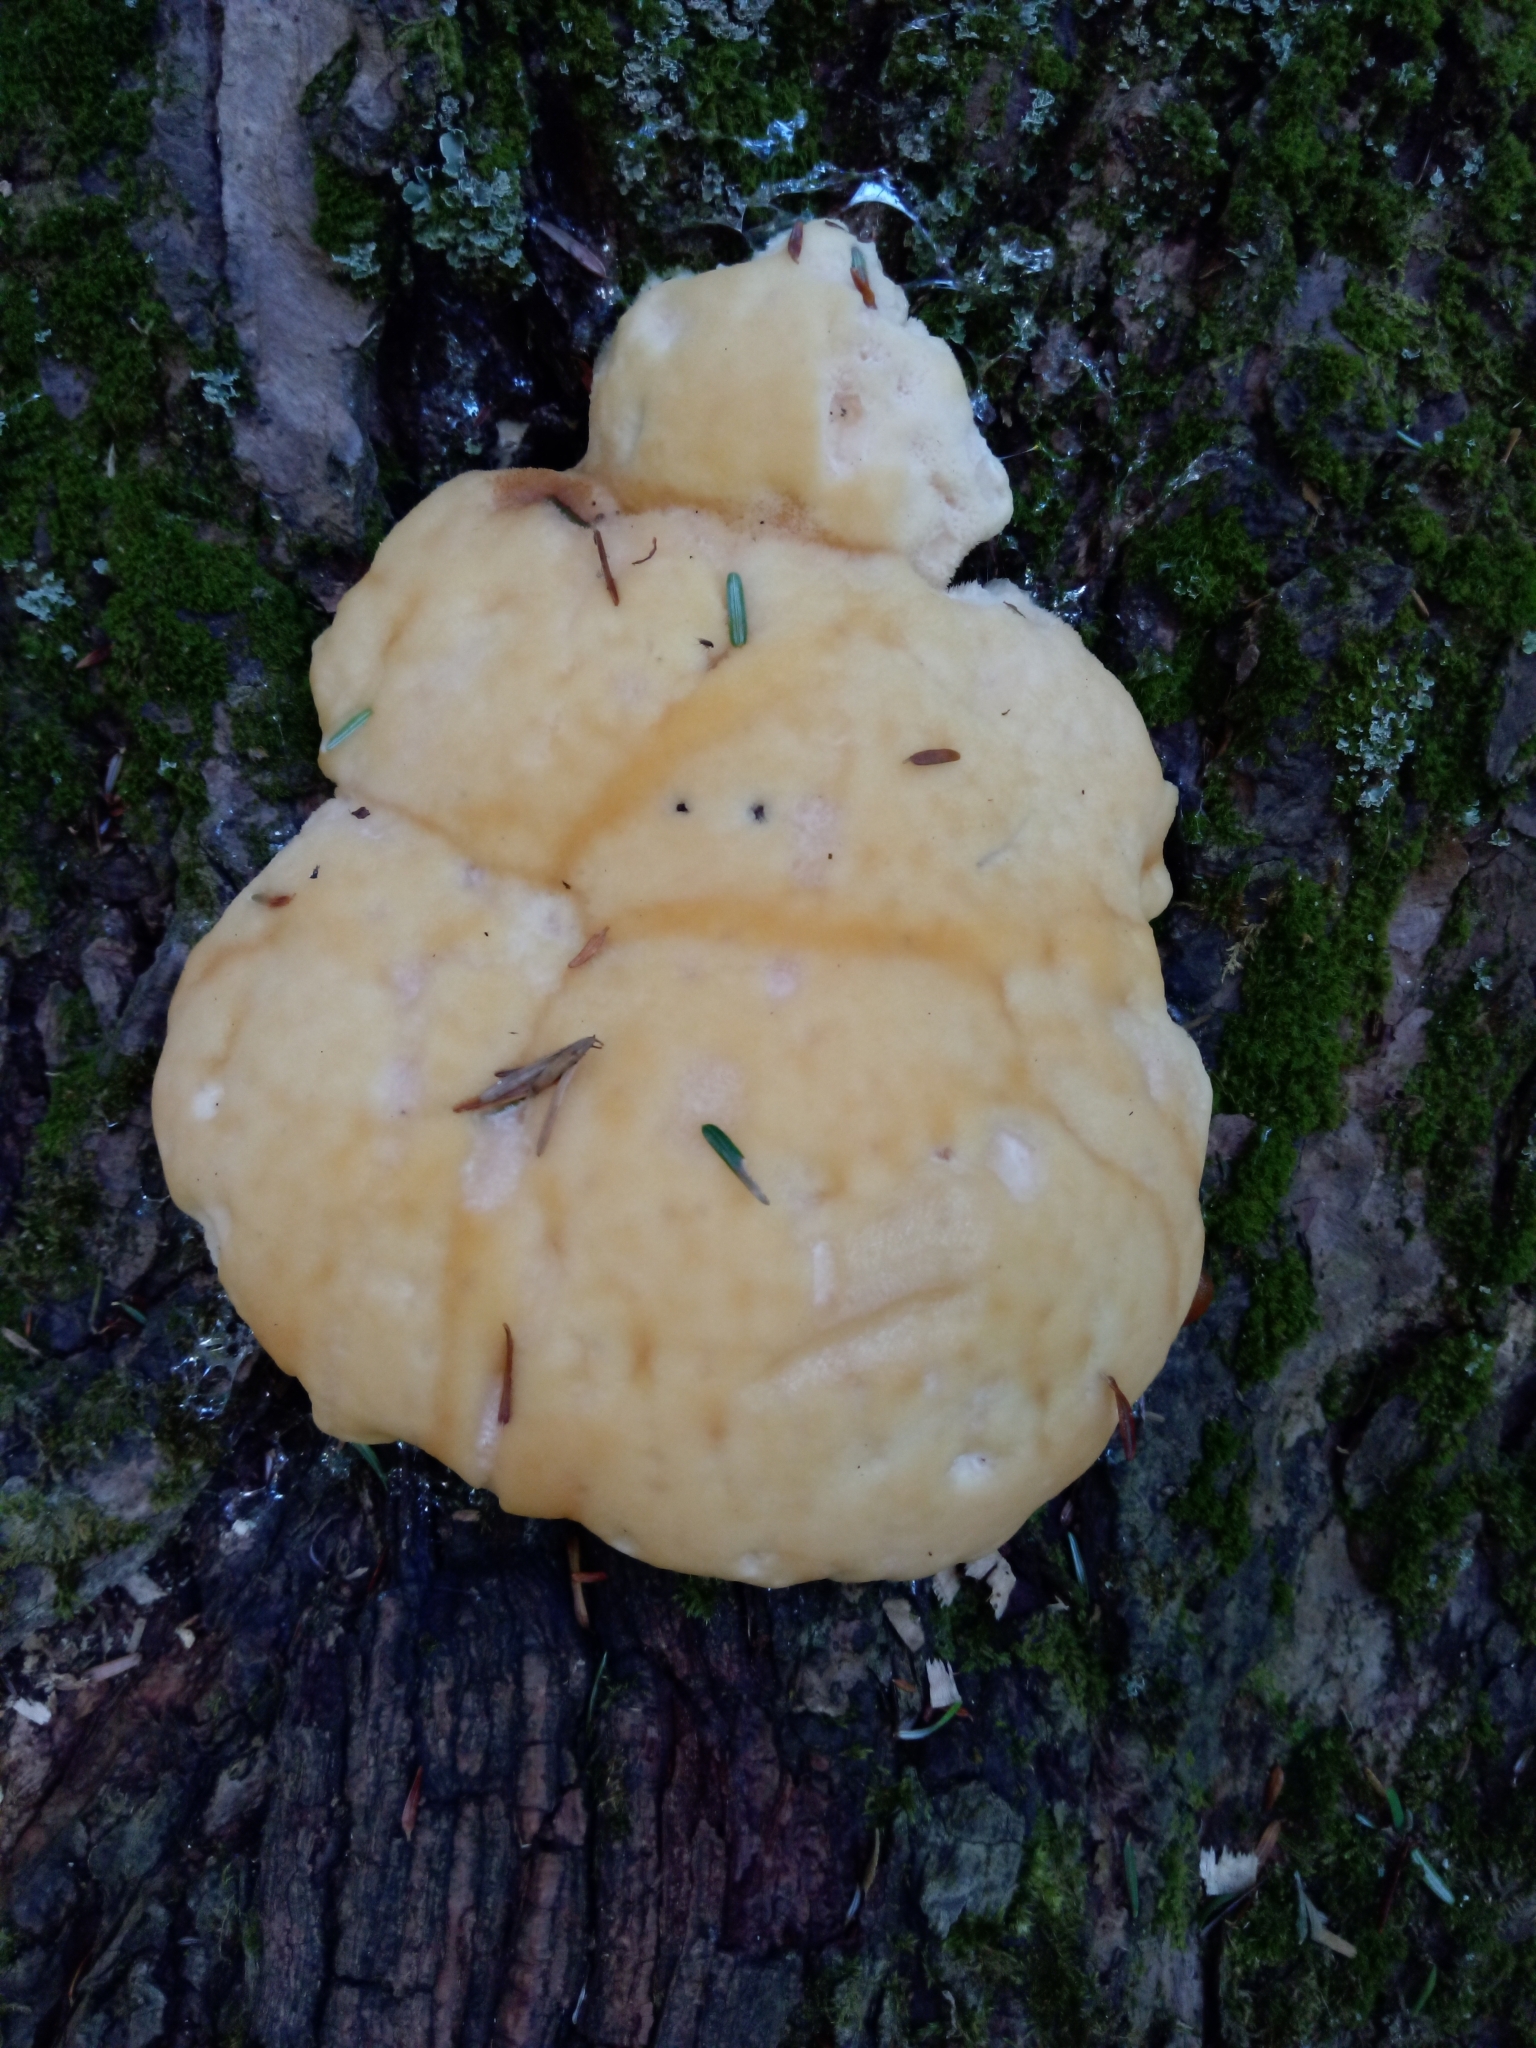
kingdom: Fungi
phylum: Basidiomycota
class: Agaricomycetes
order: Polyporales
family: Fomitopsidaceae
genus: Climacocystis
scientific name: Climacocystis borealis
